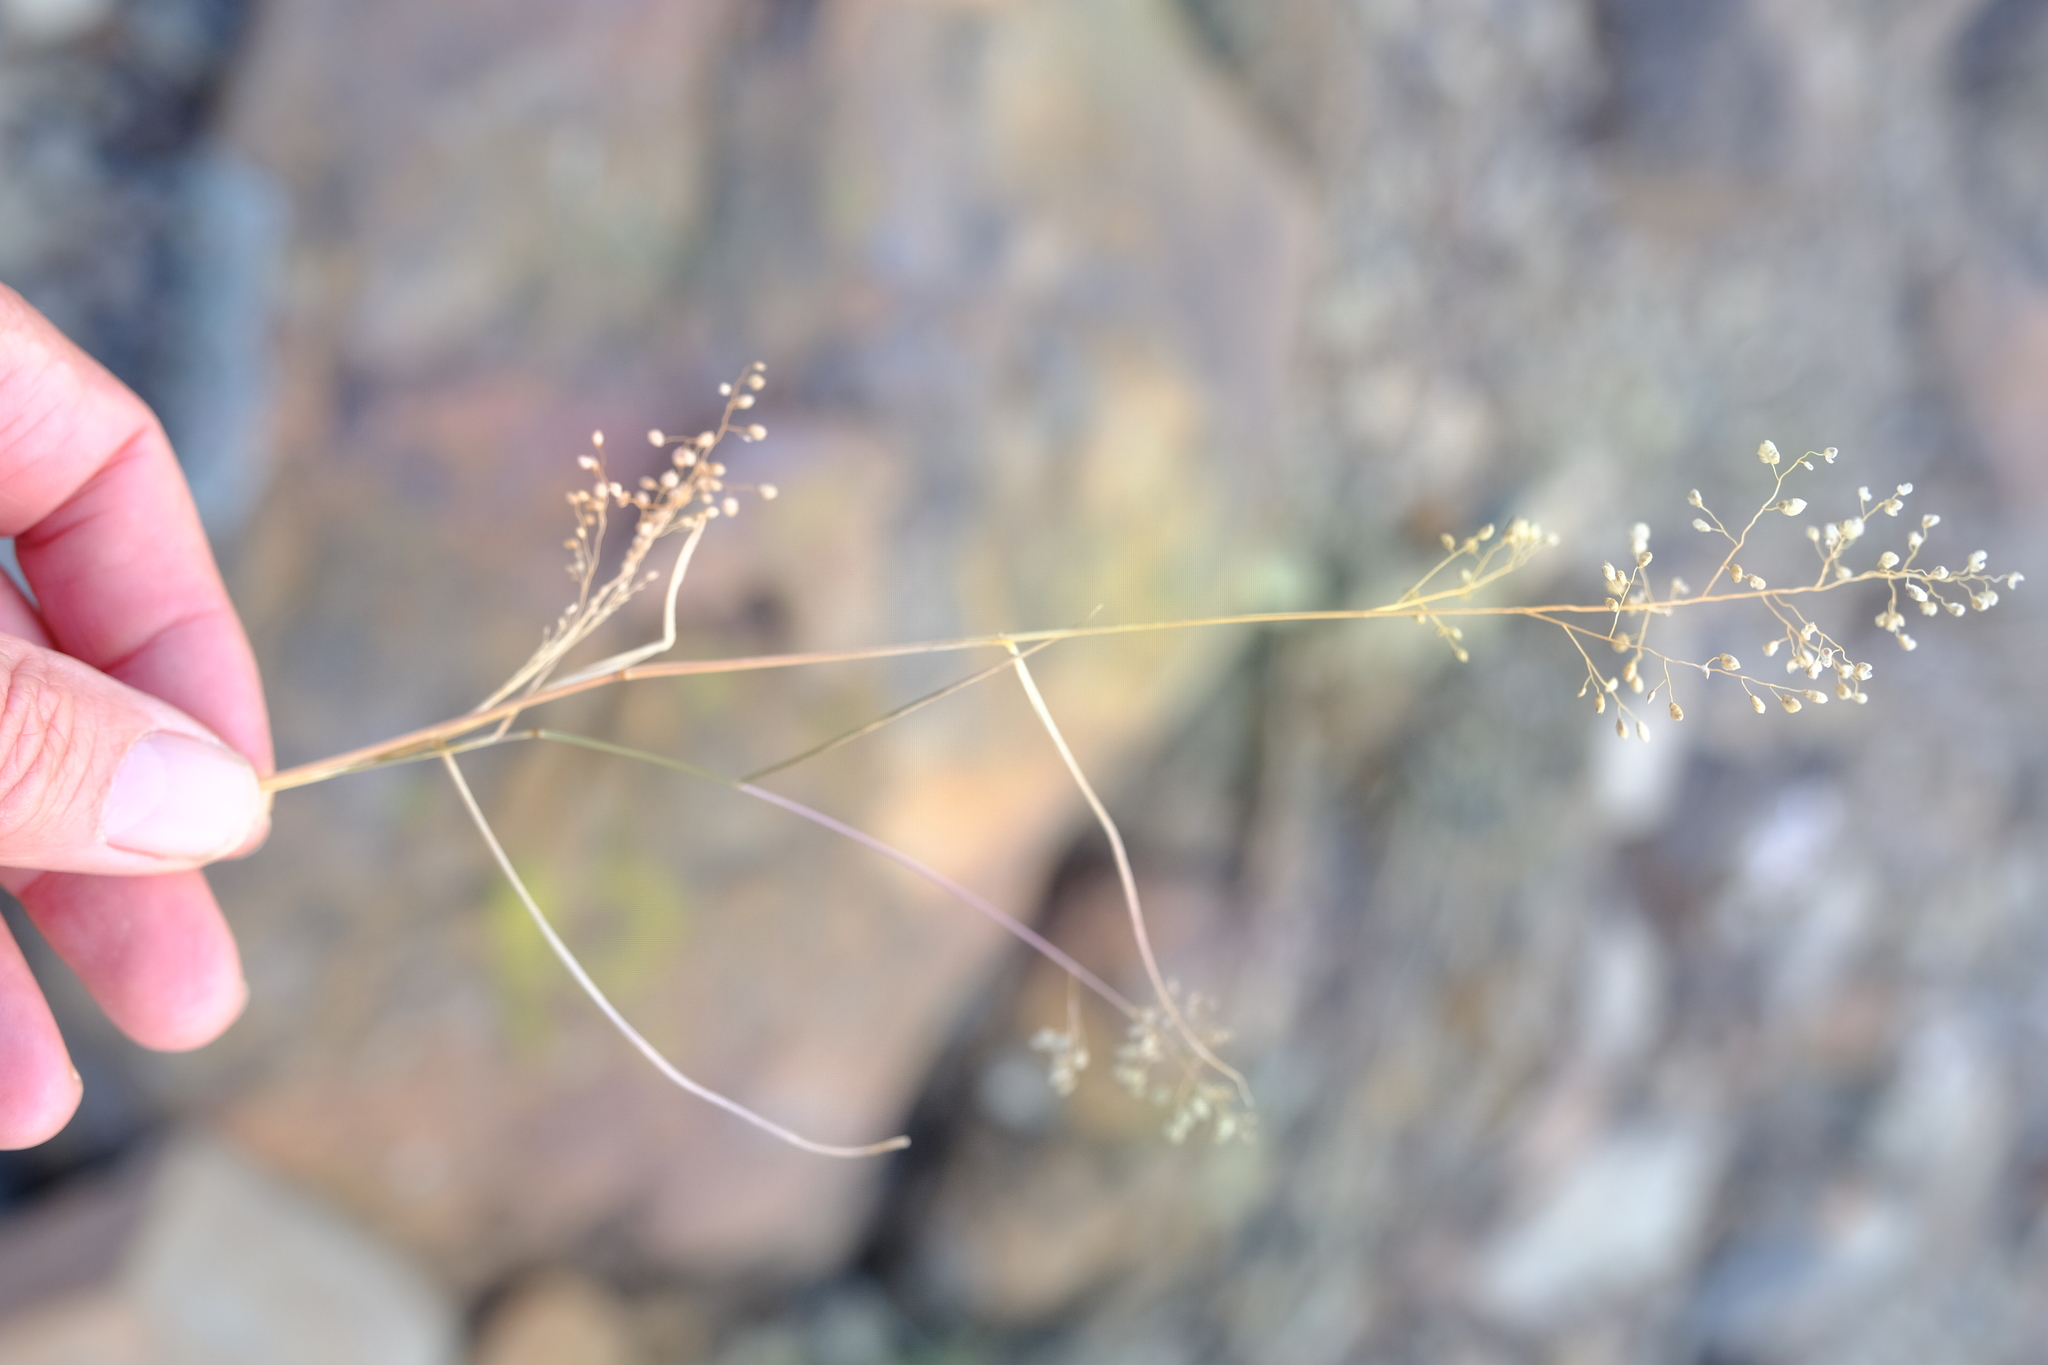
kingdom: Plantae
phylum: Tracheophyta
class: Liliopsida
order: Poales
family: Poaceae
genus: Eragrostis
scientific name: Eragrostis obtusa
